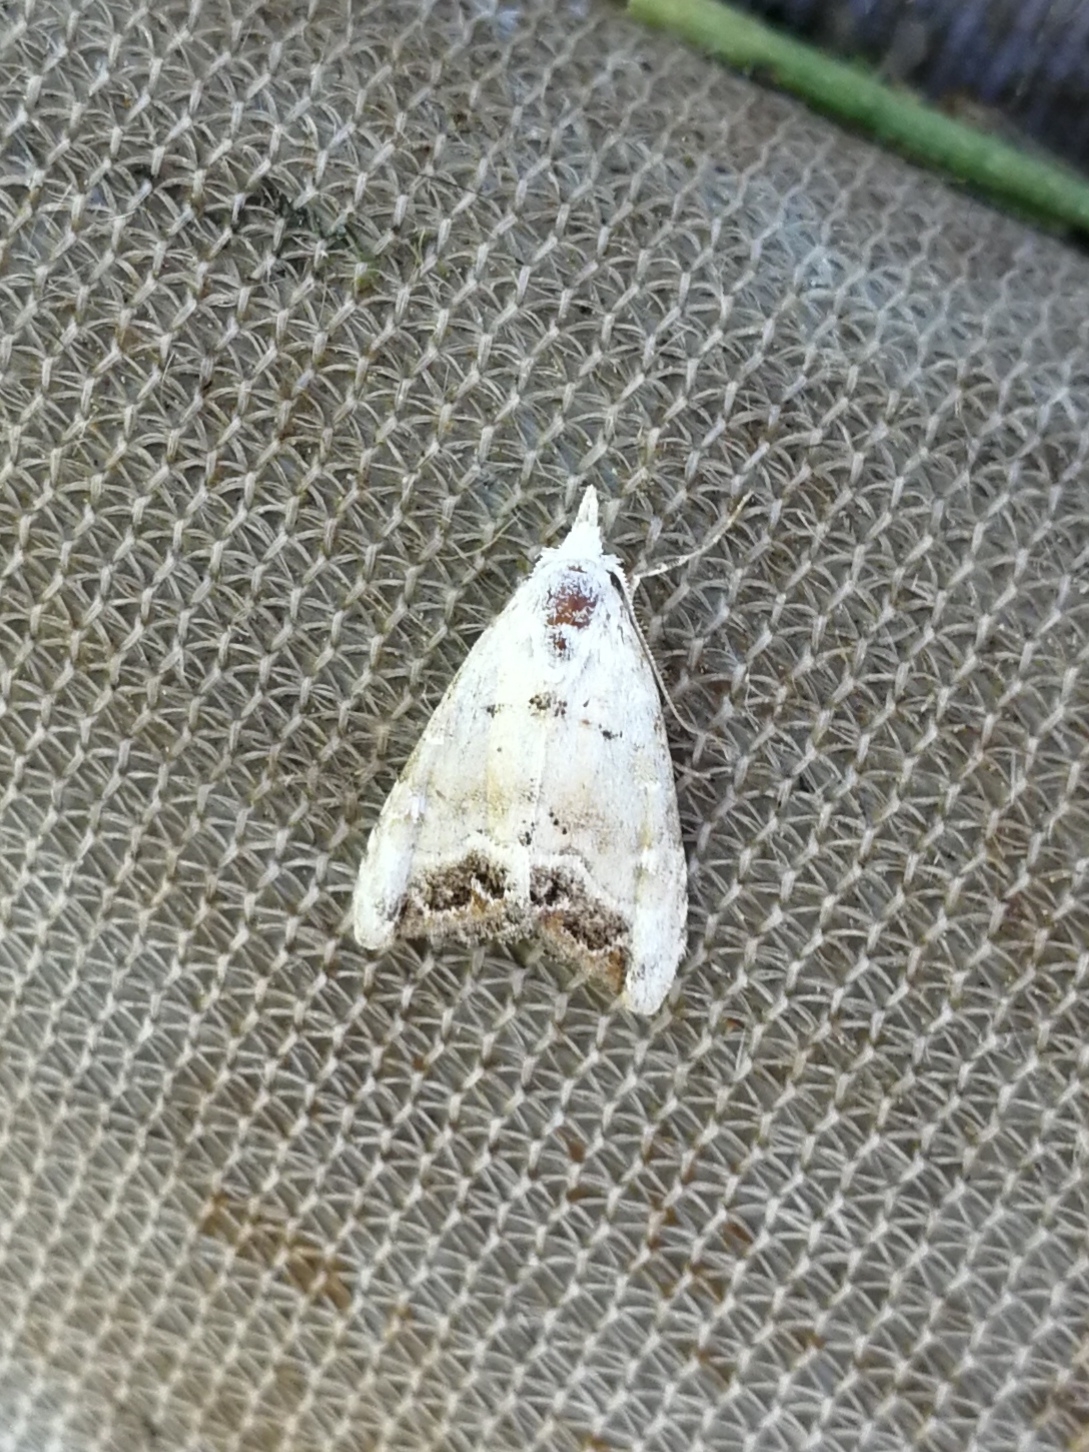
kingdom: Animalia
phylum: Arthropoda
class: Insecta
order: Lepidoptera
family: Nolidae
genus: Nola
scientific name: Nola infantula
